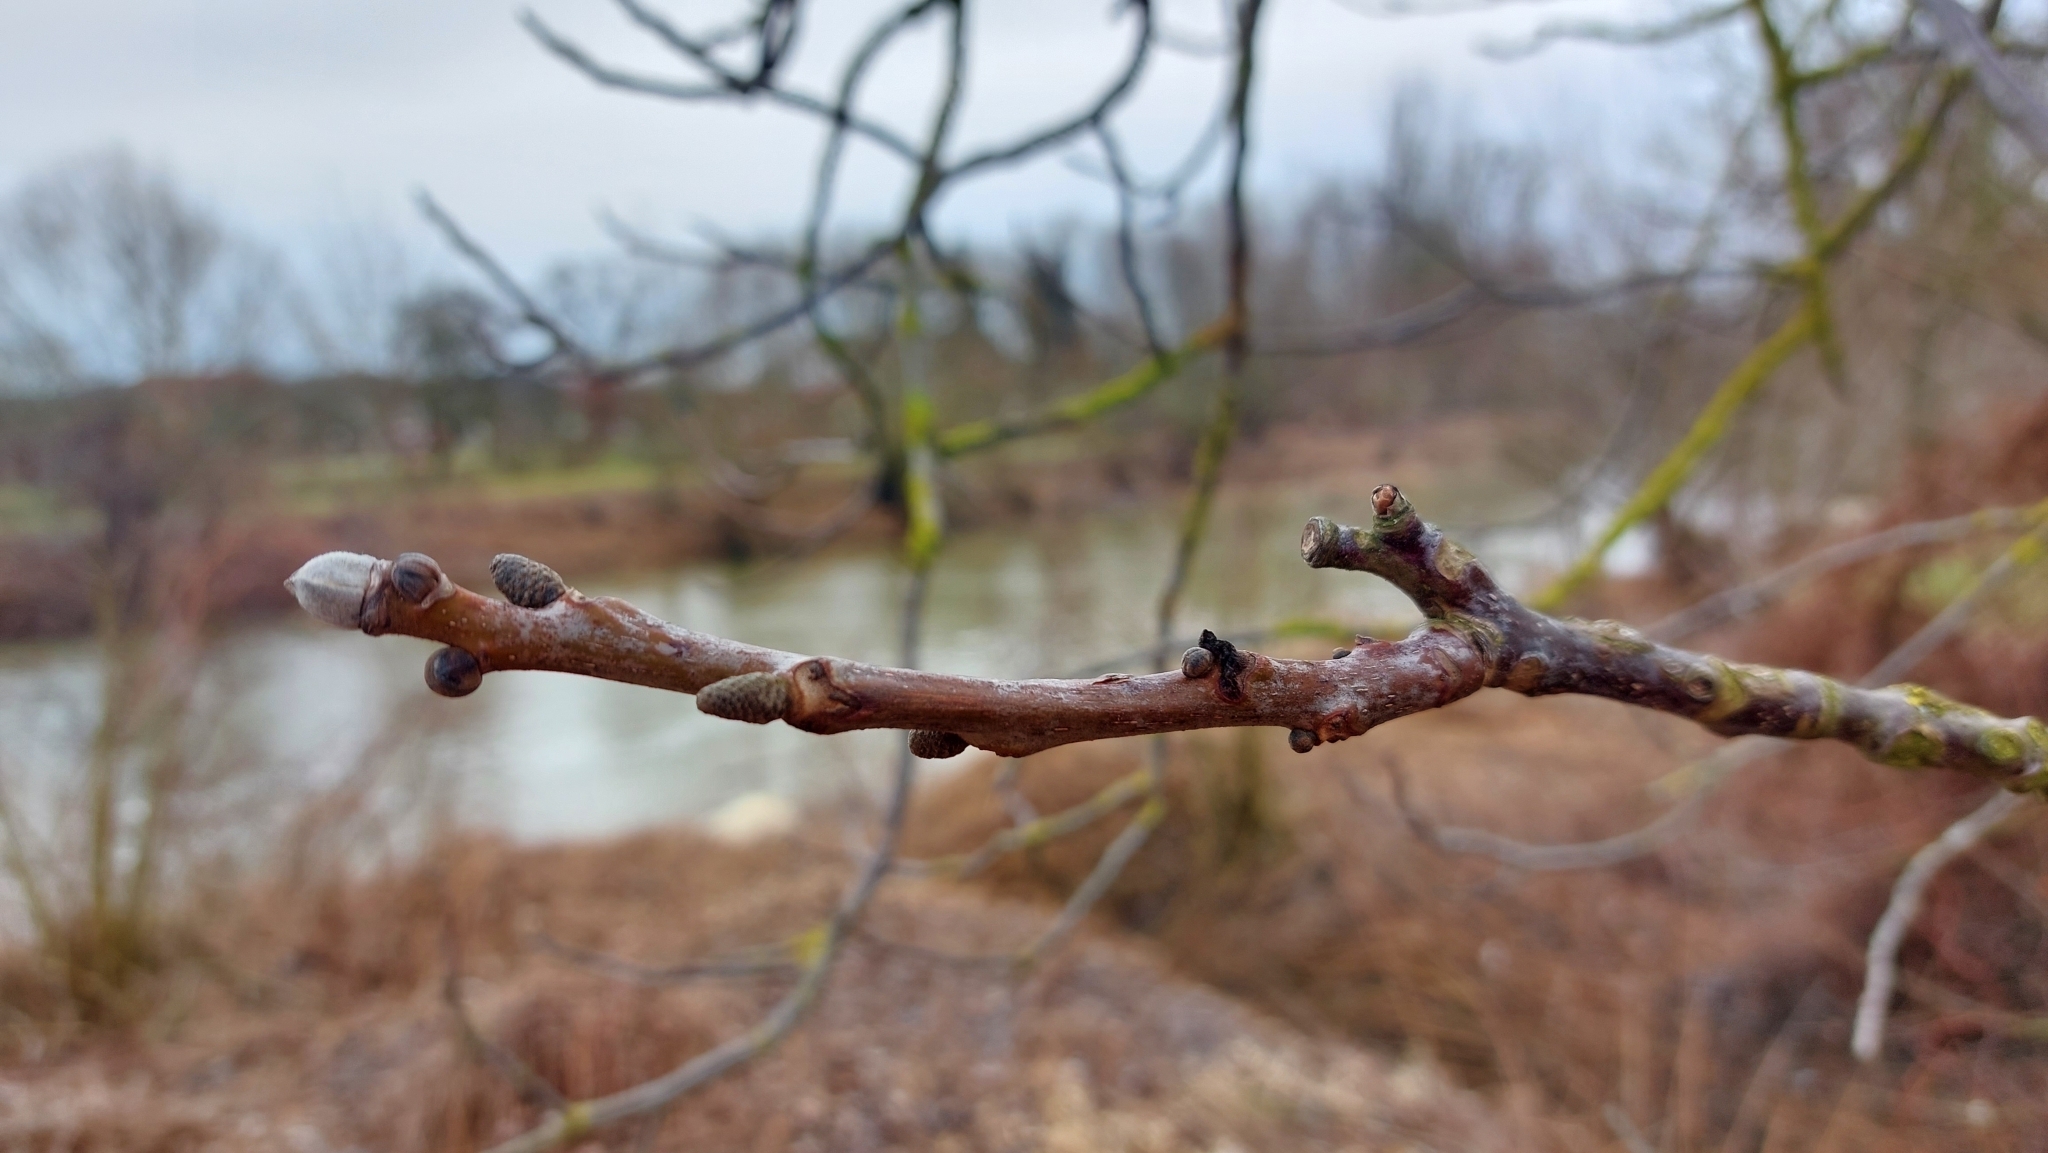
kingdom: Plantae
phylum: Tracheophyta
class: Magnoliopsida
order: Fagales
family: Juglandaceae
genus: Juglans
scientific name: Juglans regia
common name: Walnut
